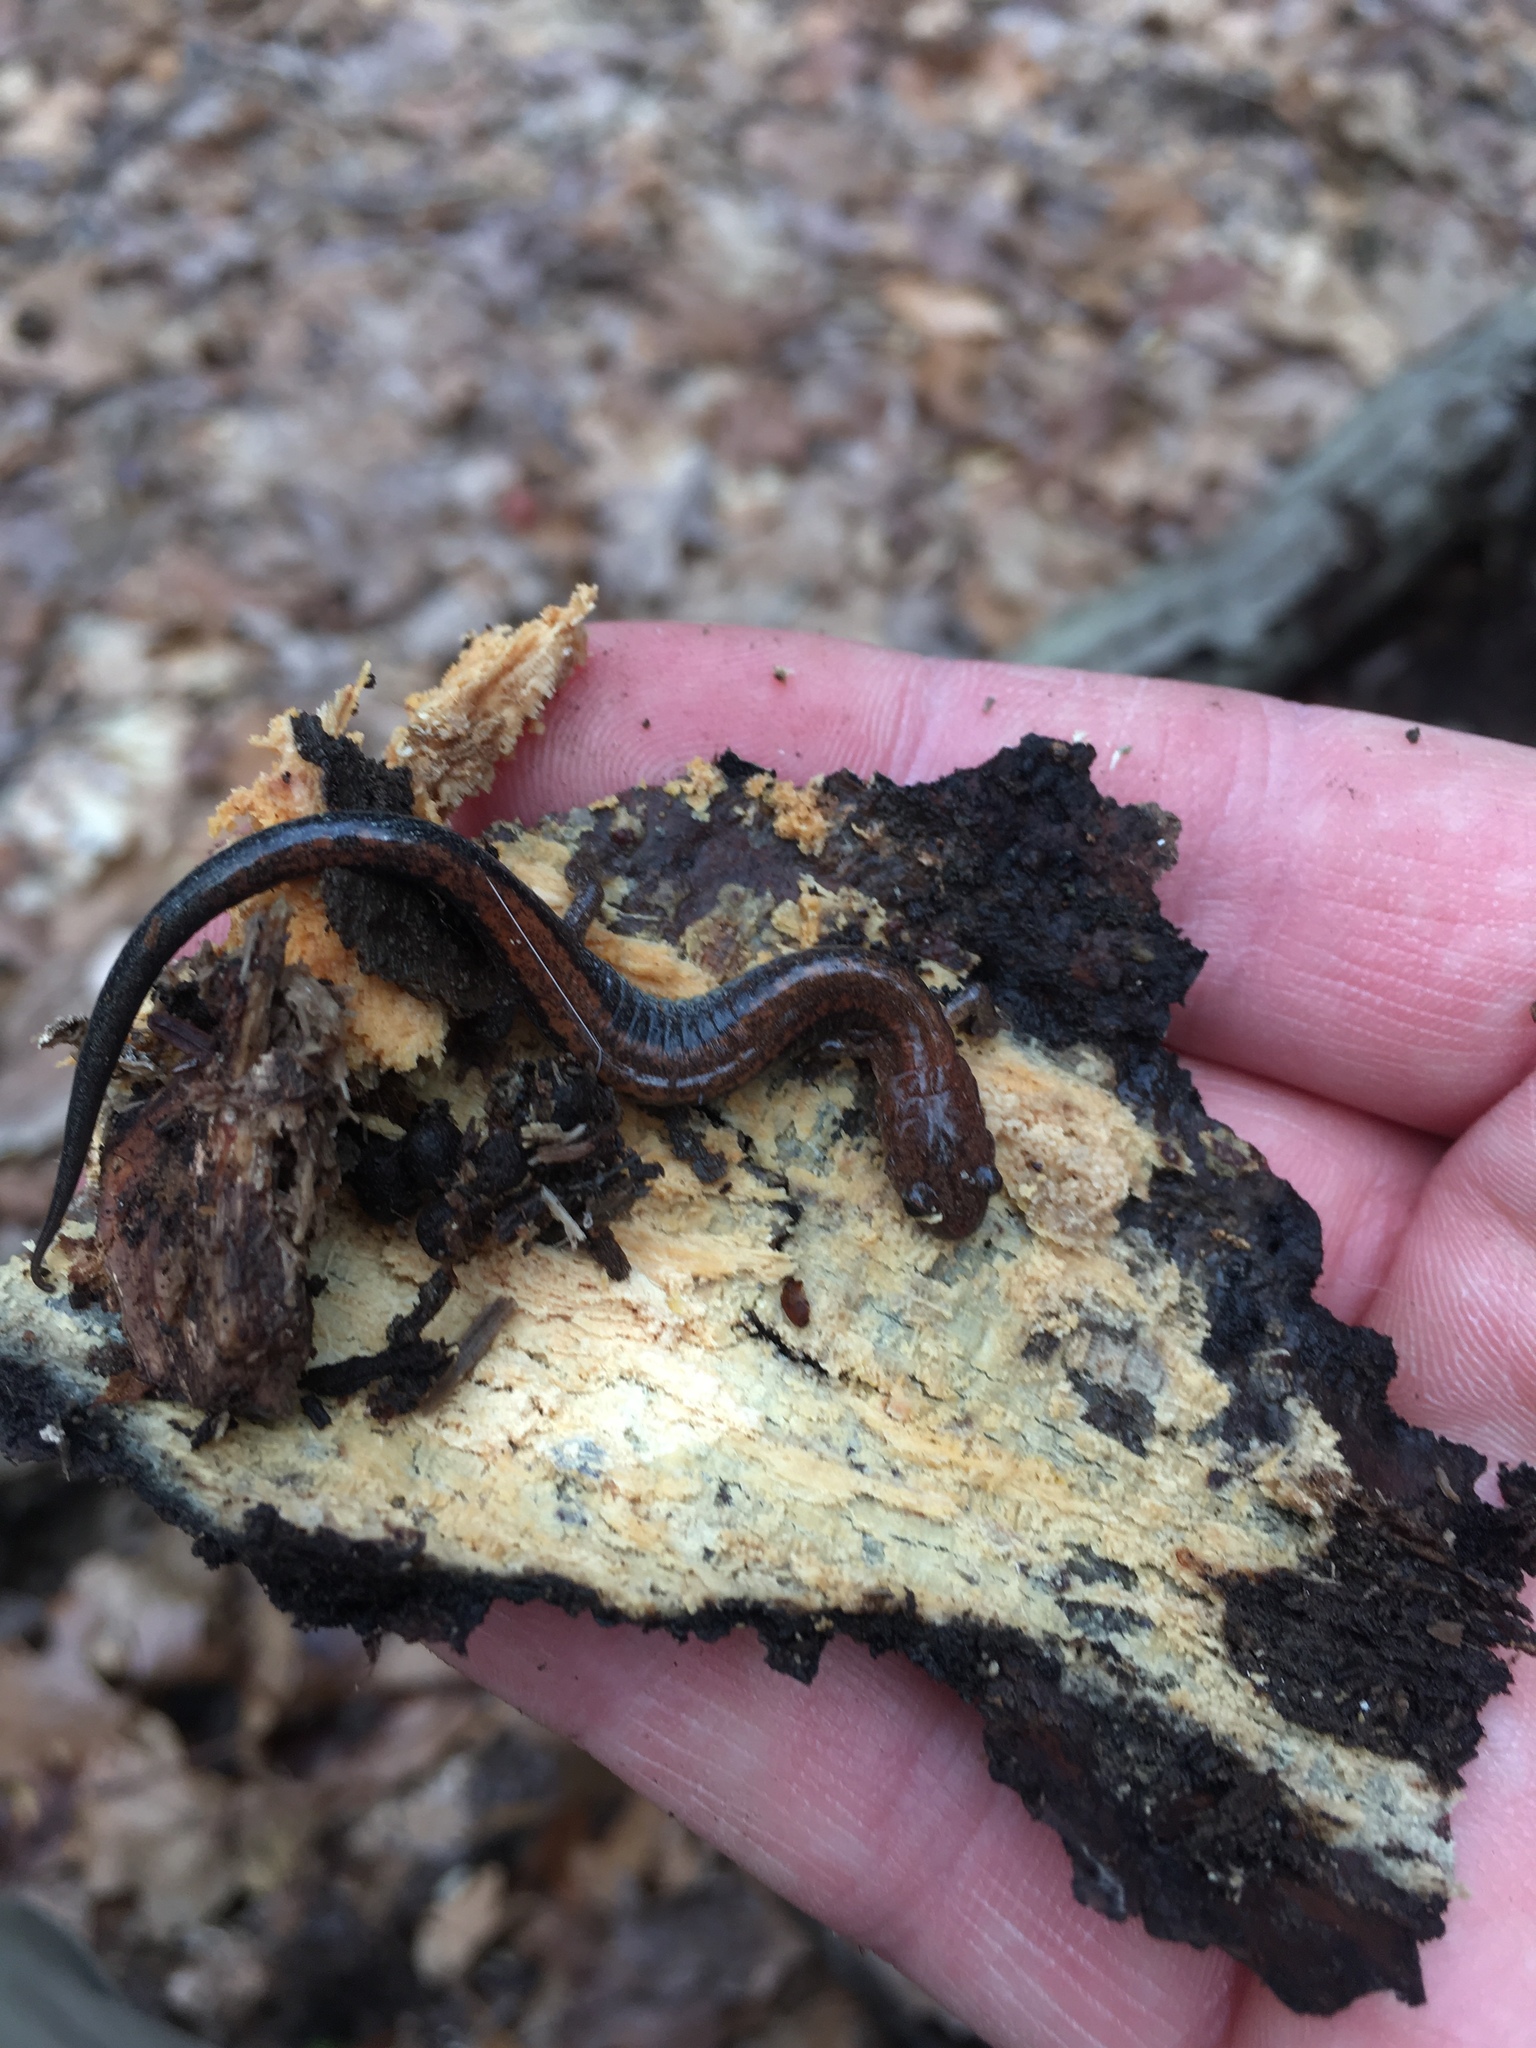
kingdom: Animalia
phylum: Chordata
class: Amphibia
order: Caudata
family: Plethodontidae
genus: Plethodon
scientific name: Plethodon cinereus
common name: Redback salamander
